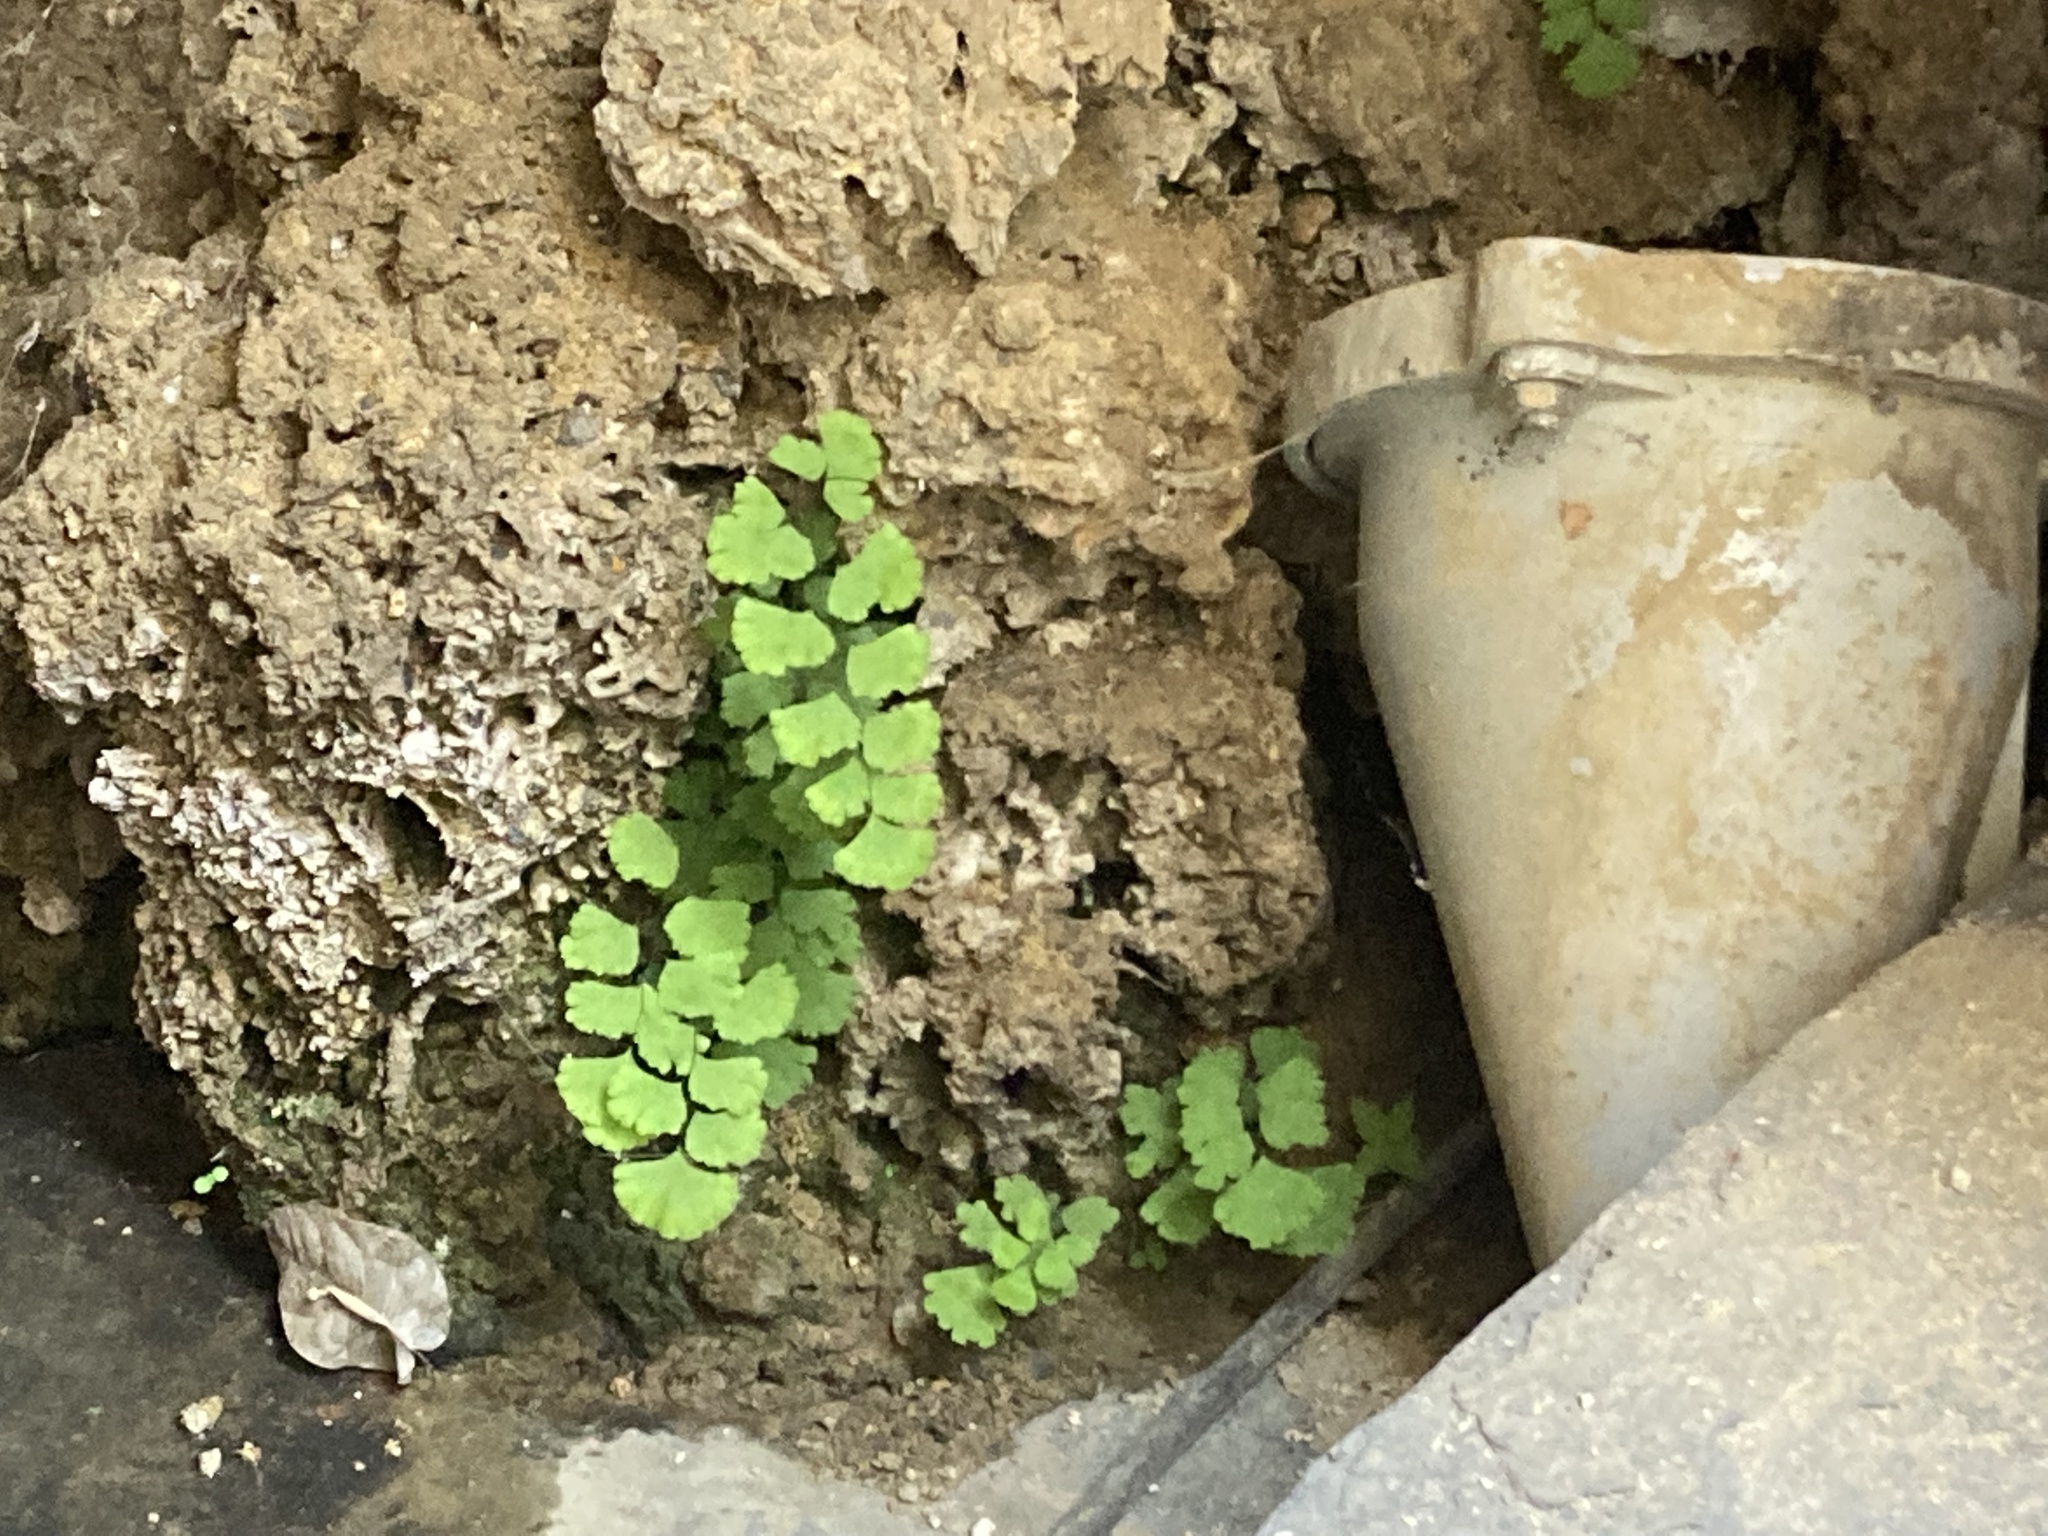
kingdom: Plantae
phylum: Tracheophyta
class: Polypodiopsida
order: Polypodiales
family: Pteridaceae
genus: Adiantum
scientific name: Adiantum capillus-veneris
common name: Maidenhair fern
